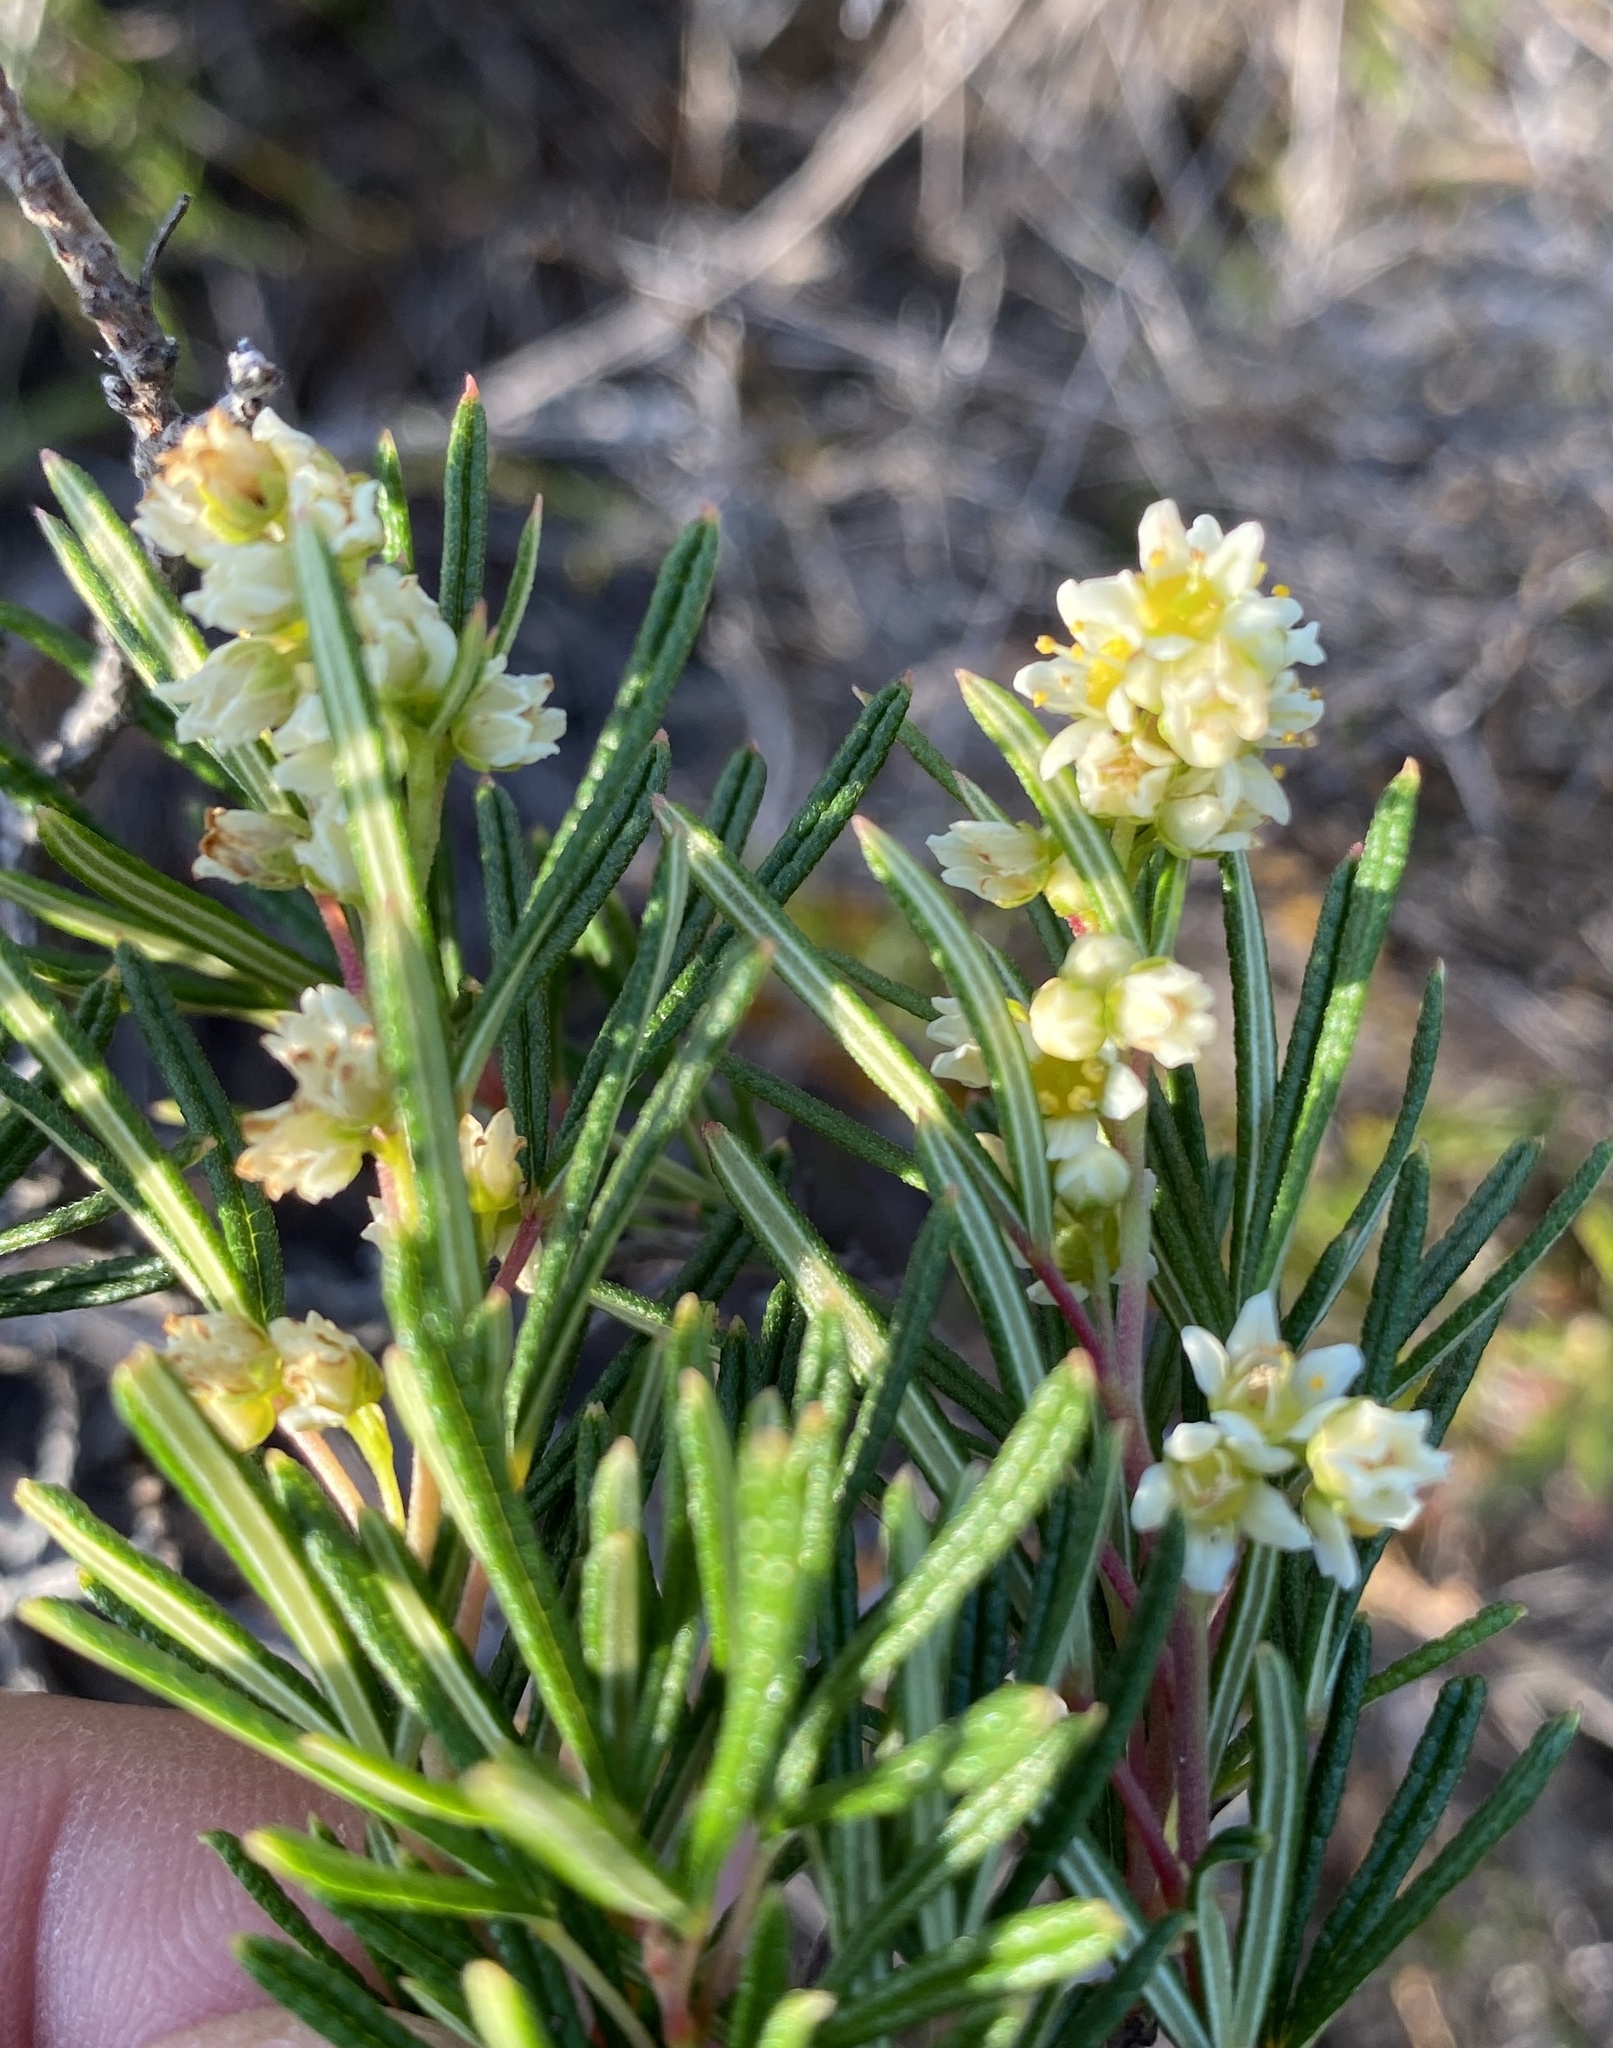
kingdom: Plantae
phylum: Tracheophyta
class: Magnoliopsida
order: Sapindales
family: Anacardiaceae
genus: Searsia
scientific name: Searsia rosmarinifolia
